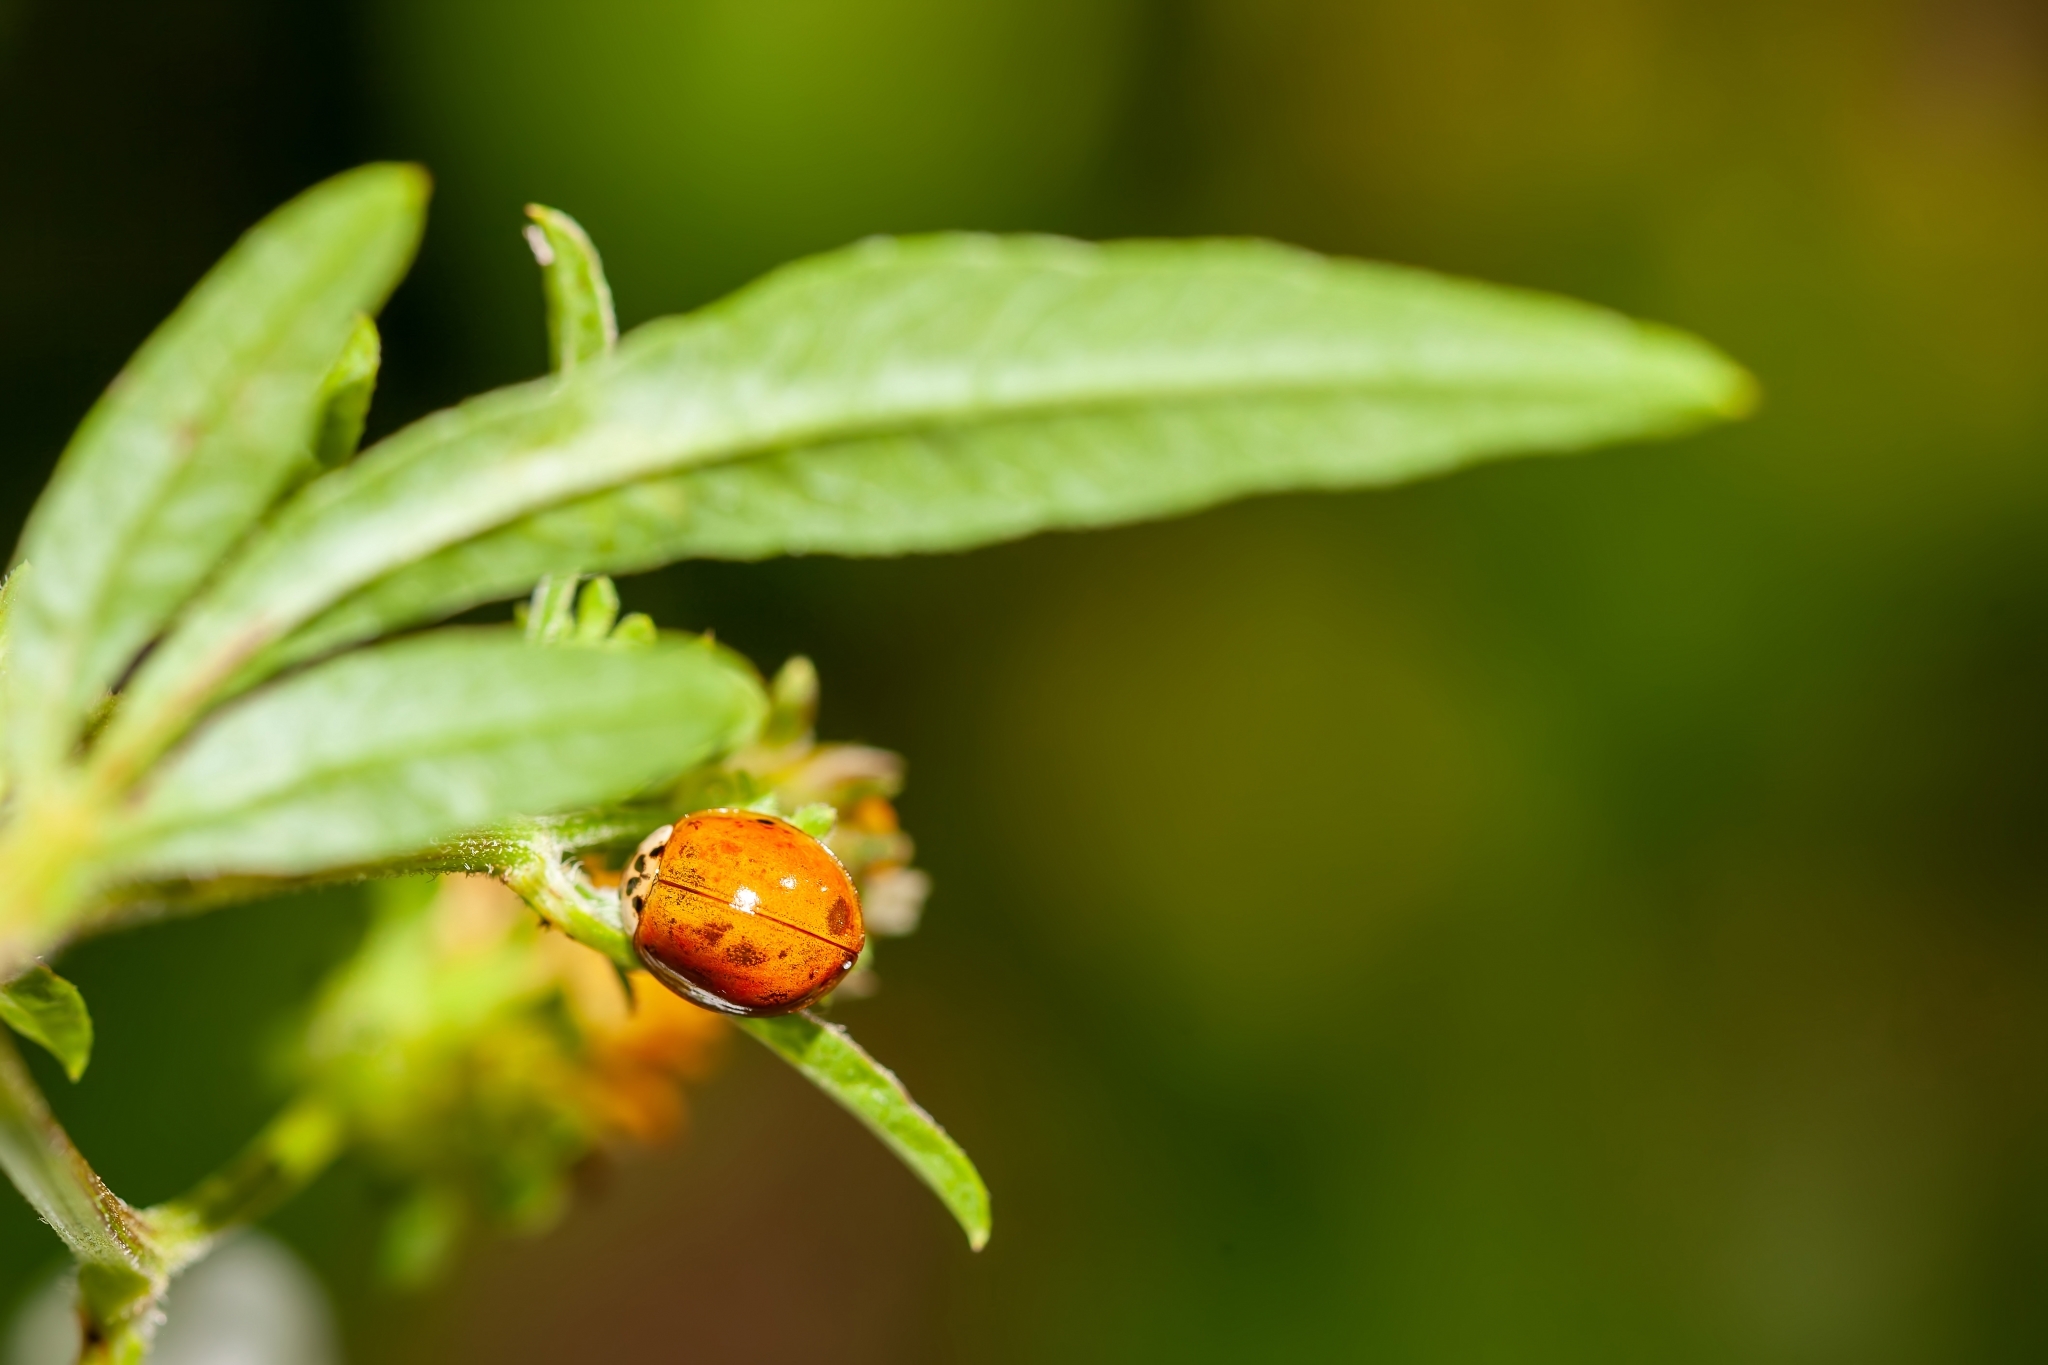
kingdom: Animalia
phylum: Arthropoda
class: Insecta
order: Coleoptera
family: Coccinellidae
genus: Harmonia
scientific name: Harmonia axyridis
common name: Harlequin ladybird
